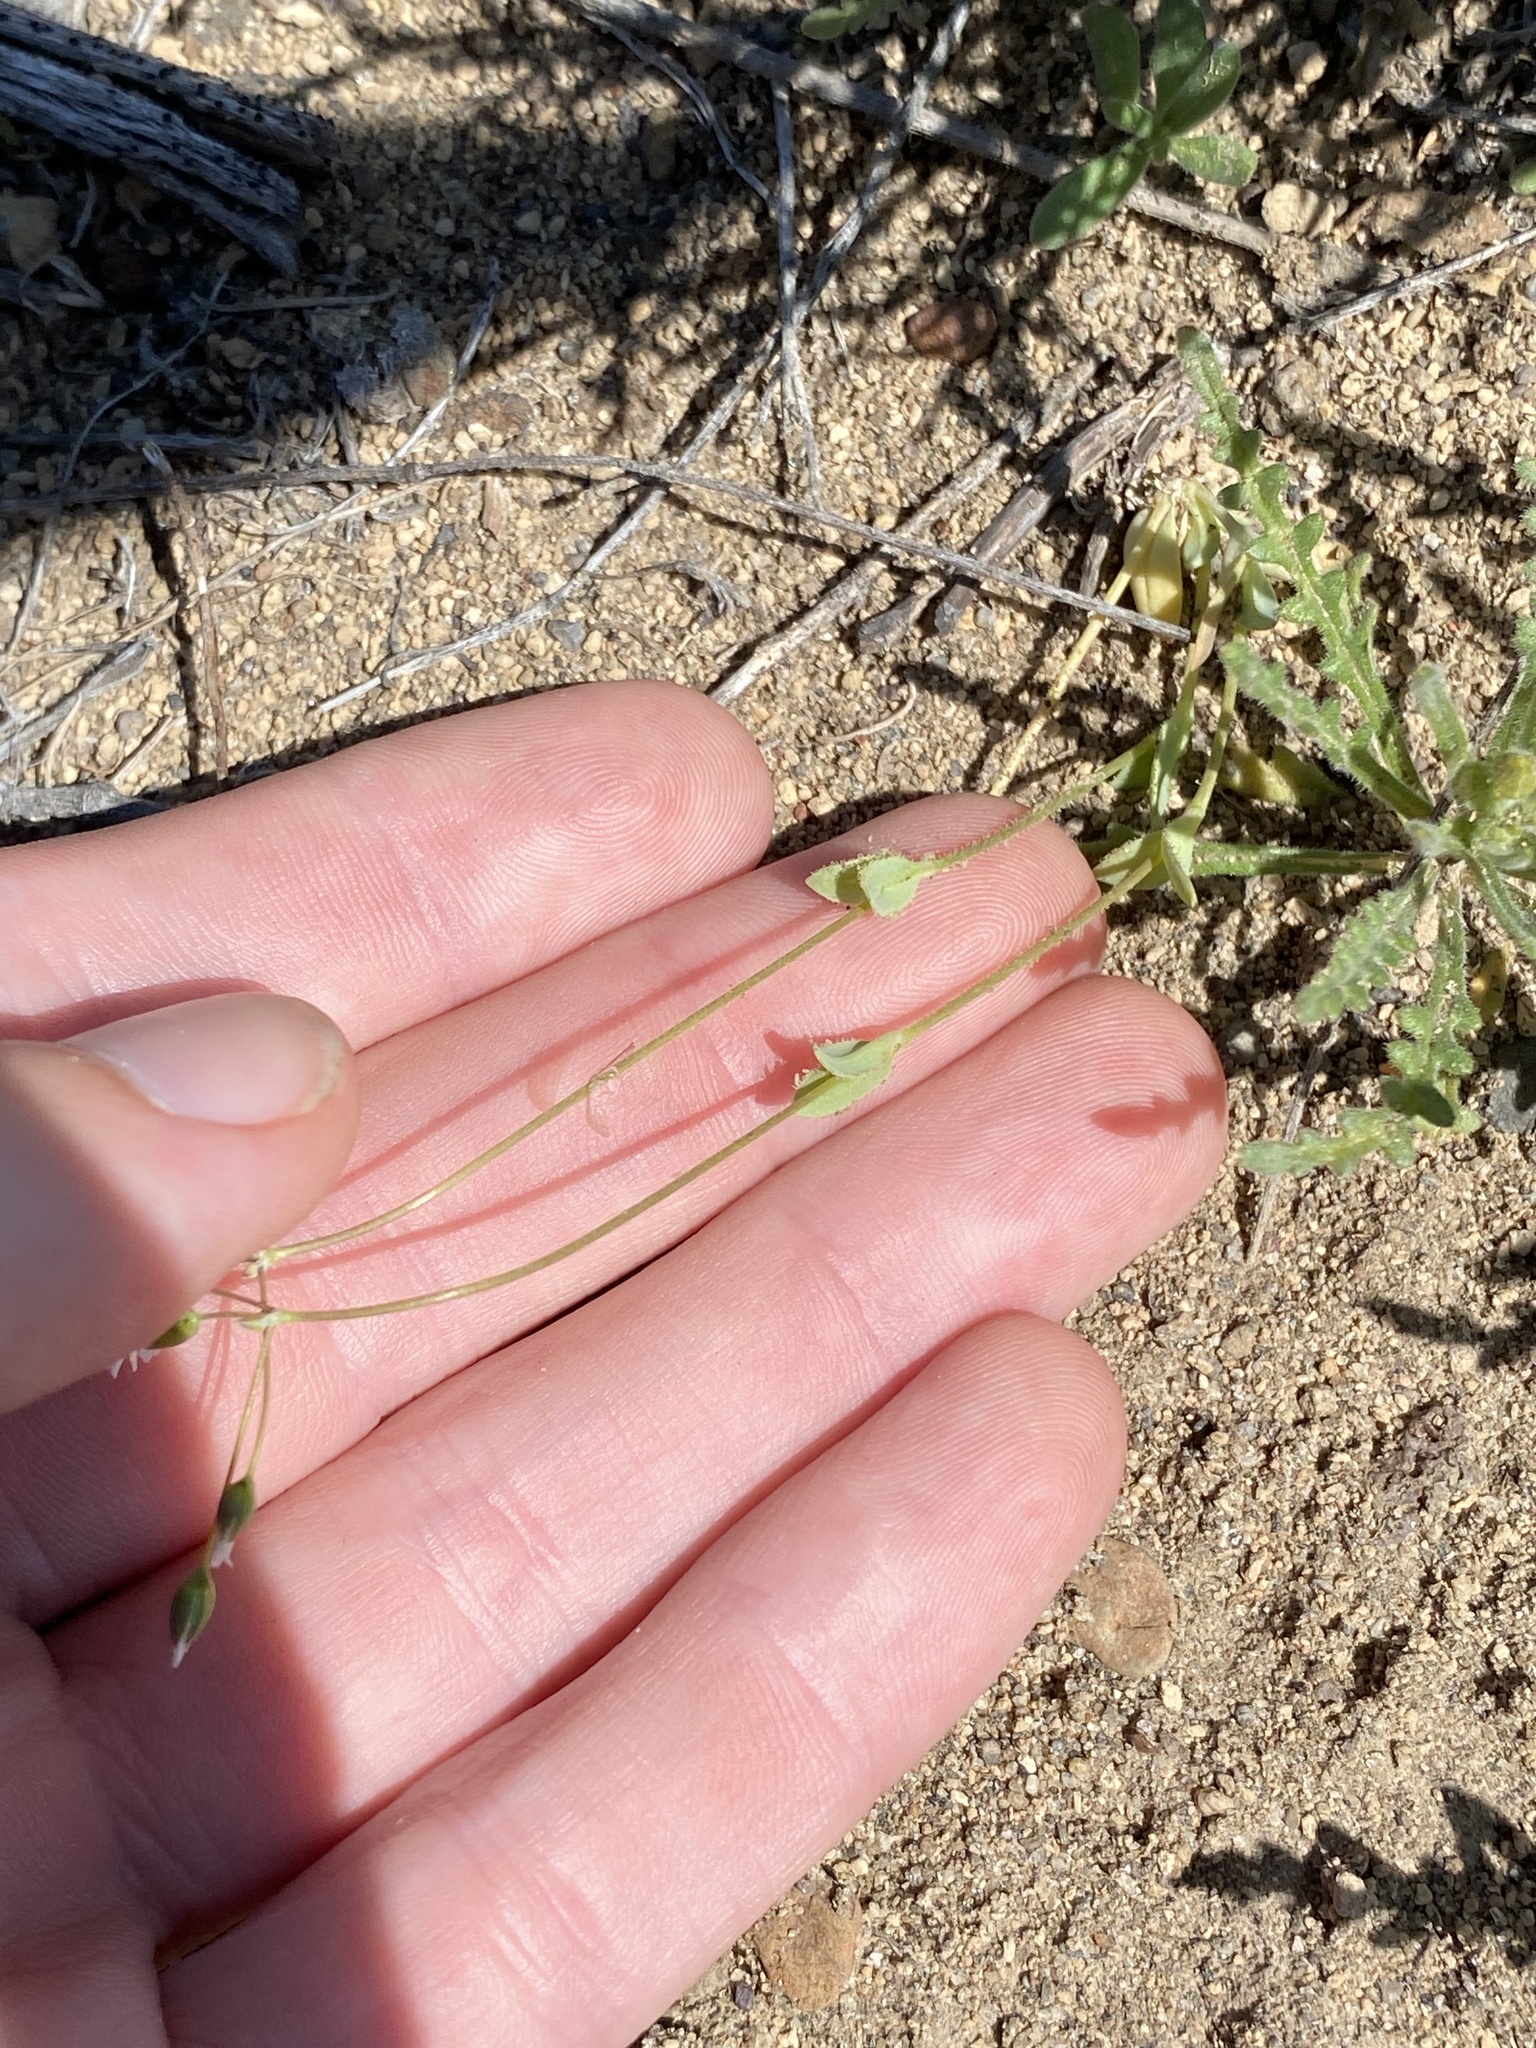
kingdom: Plantae
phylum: Tracheophyta
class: Magnoliopsida
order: Caryophyllales
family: Caryophyllaceae
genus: Holosteum
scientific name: Holosteum umbellatum
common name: Jagged chickweed
